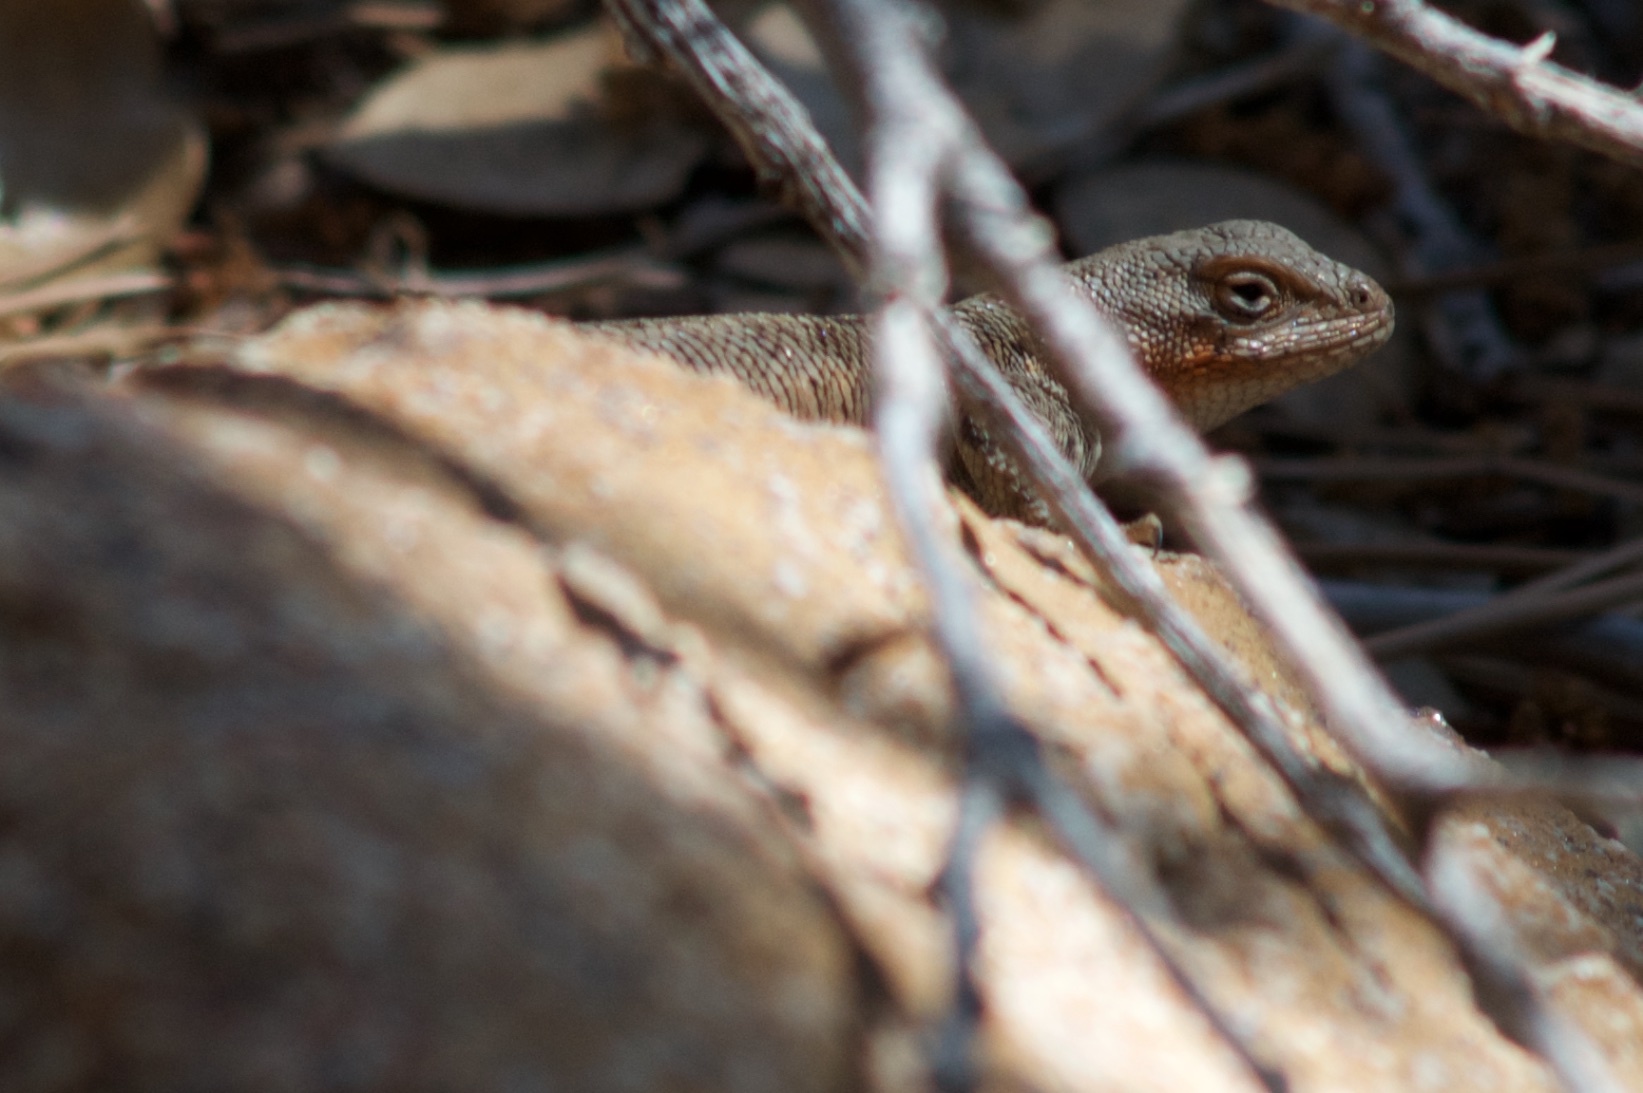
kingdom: Animalia
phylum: Chordata
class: Squamata
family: Phrynosomatidae
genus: Sceloporus
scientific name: Sceloporus graciosus
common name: Sagebrush lizard
